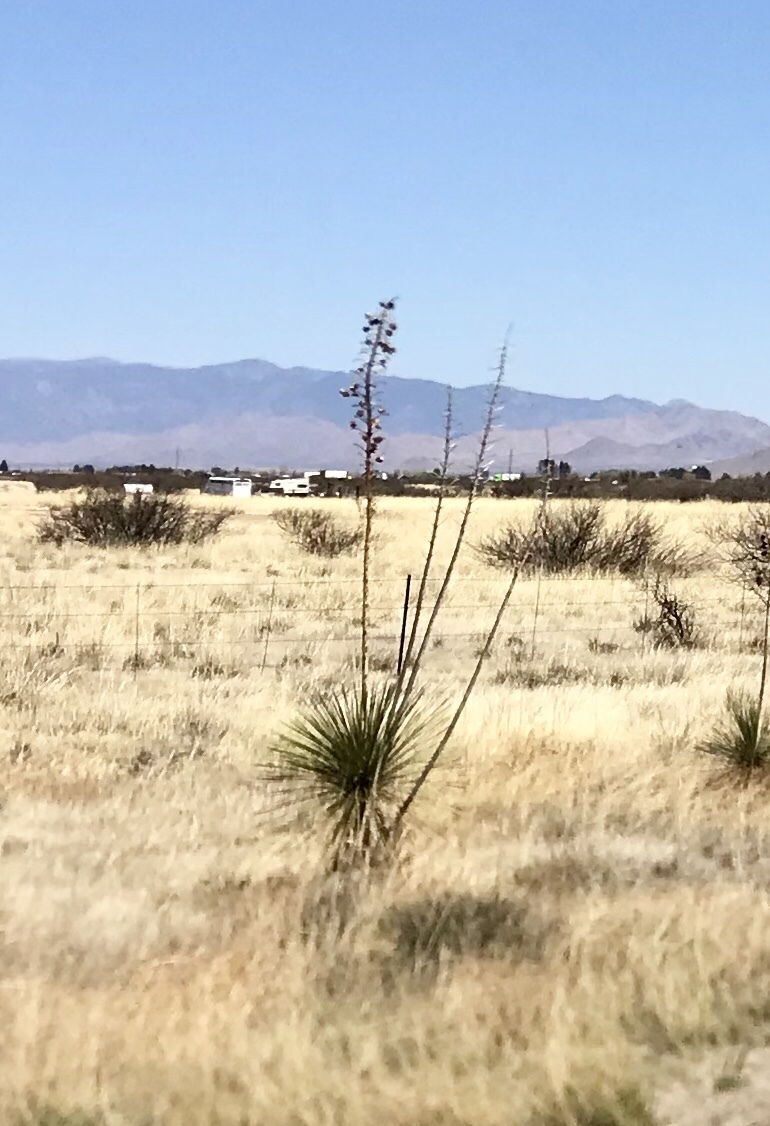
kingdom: Plantae
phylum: Tracheophyta
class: Liliopsida
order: Asparagales
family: Asparagaceae
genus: Yucca
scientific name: Yucca elata
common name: Palmella
